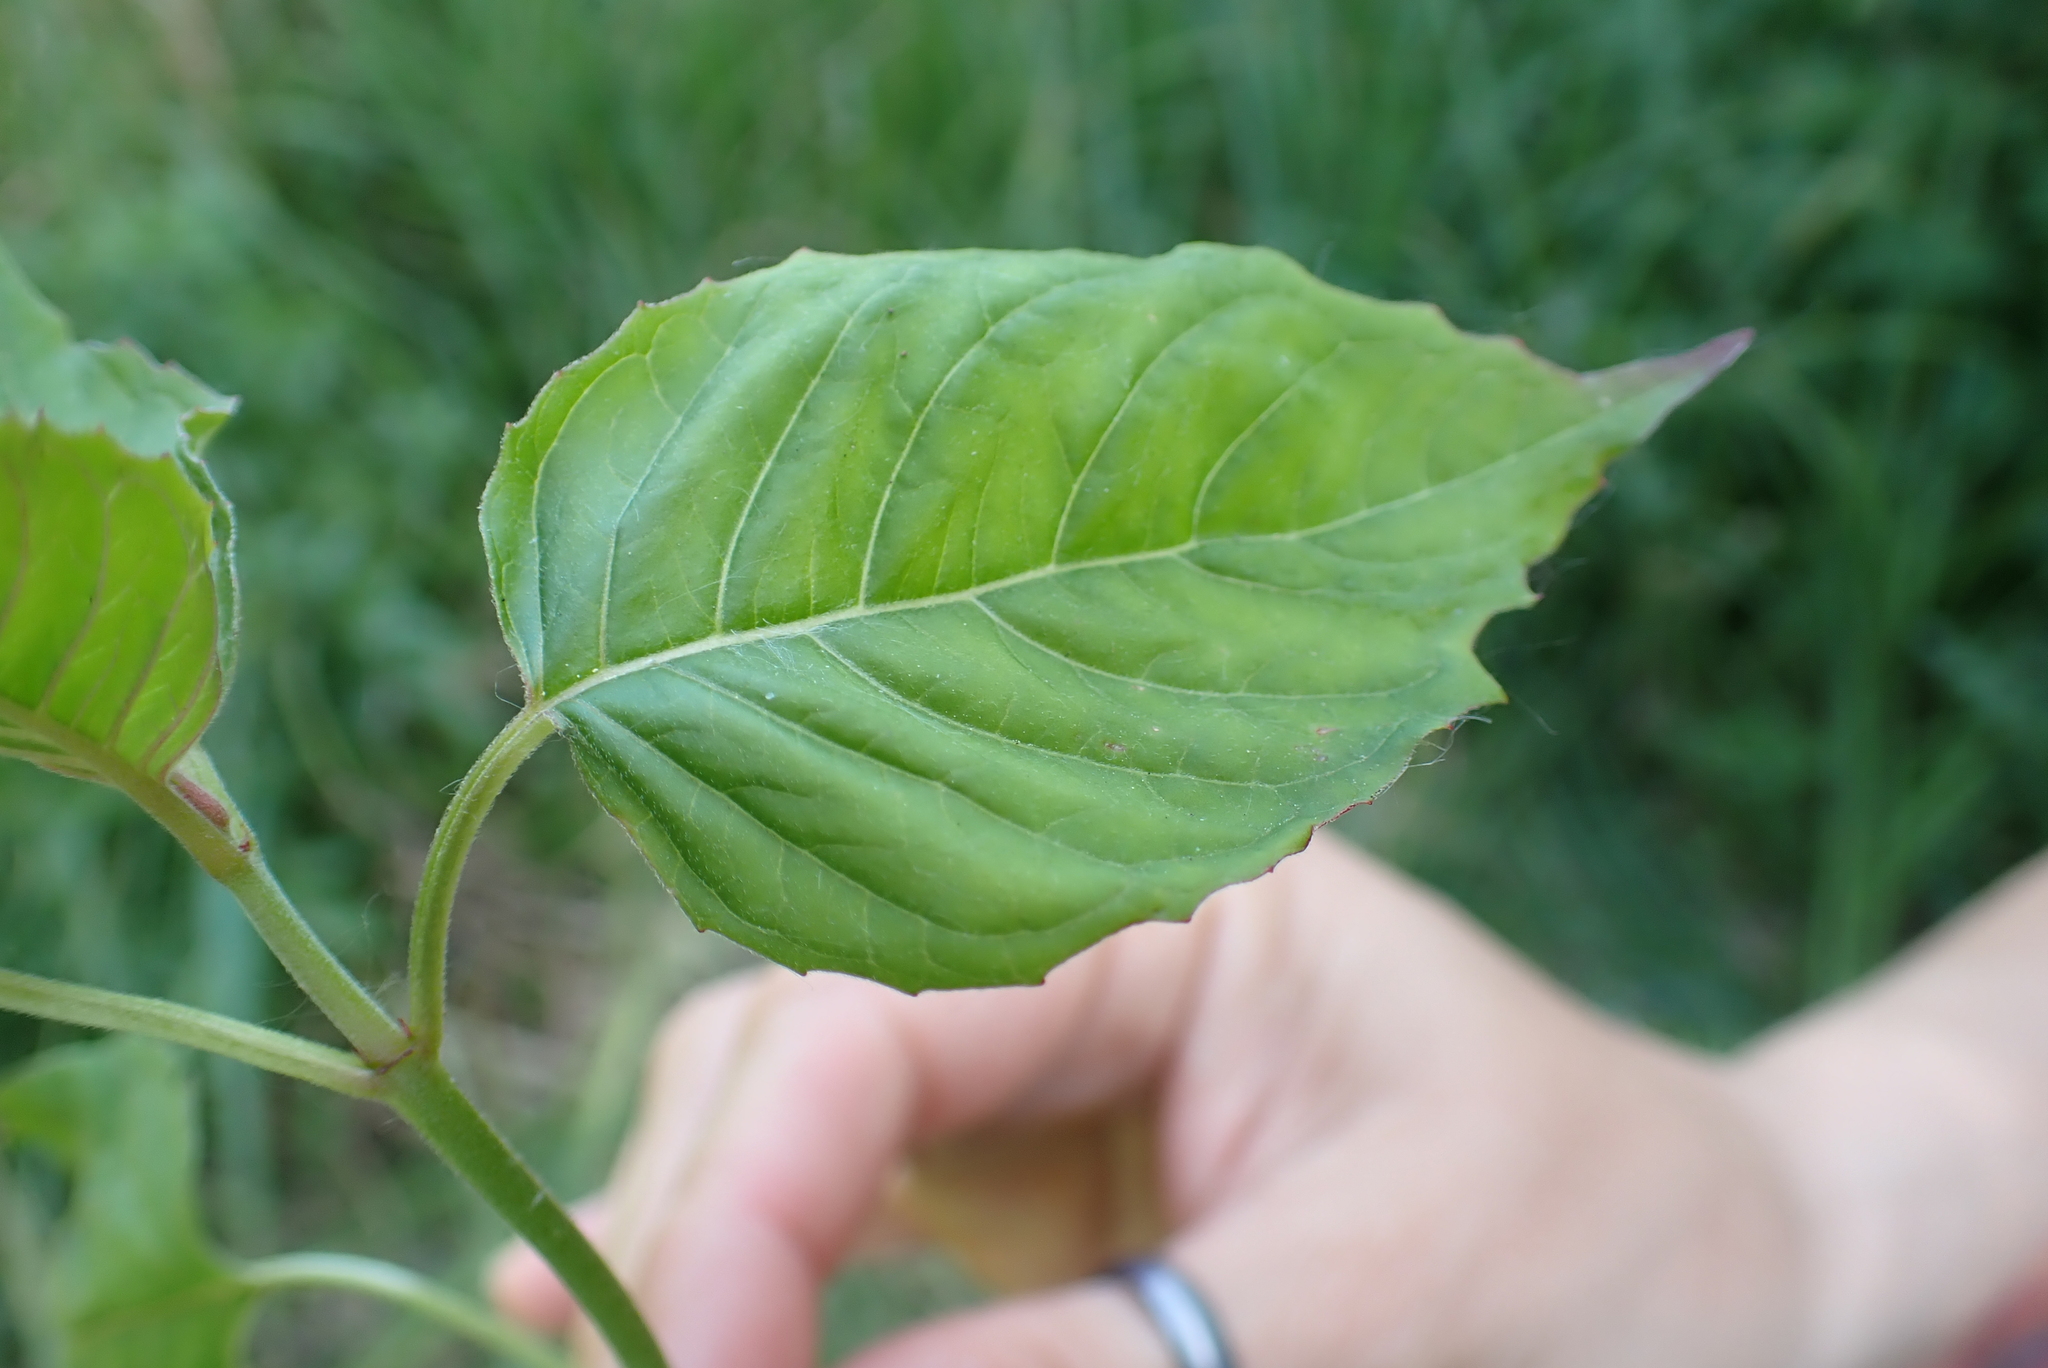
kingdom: Plantae
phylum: Tracheophyta
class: Magnoliopsida
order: Myrtales
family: Onagraceae
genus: Circaea
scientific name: Circaea lutetiana
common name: Enchanter's-nightshade
